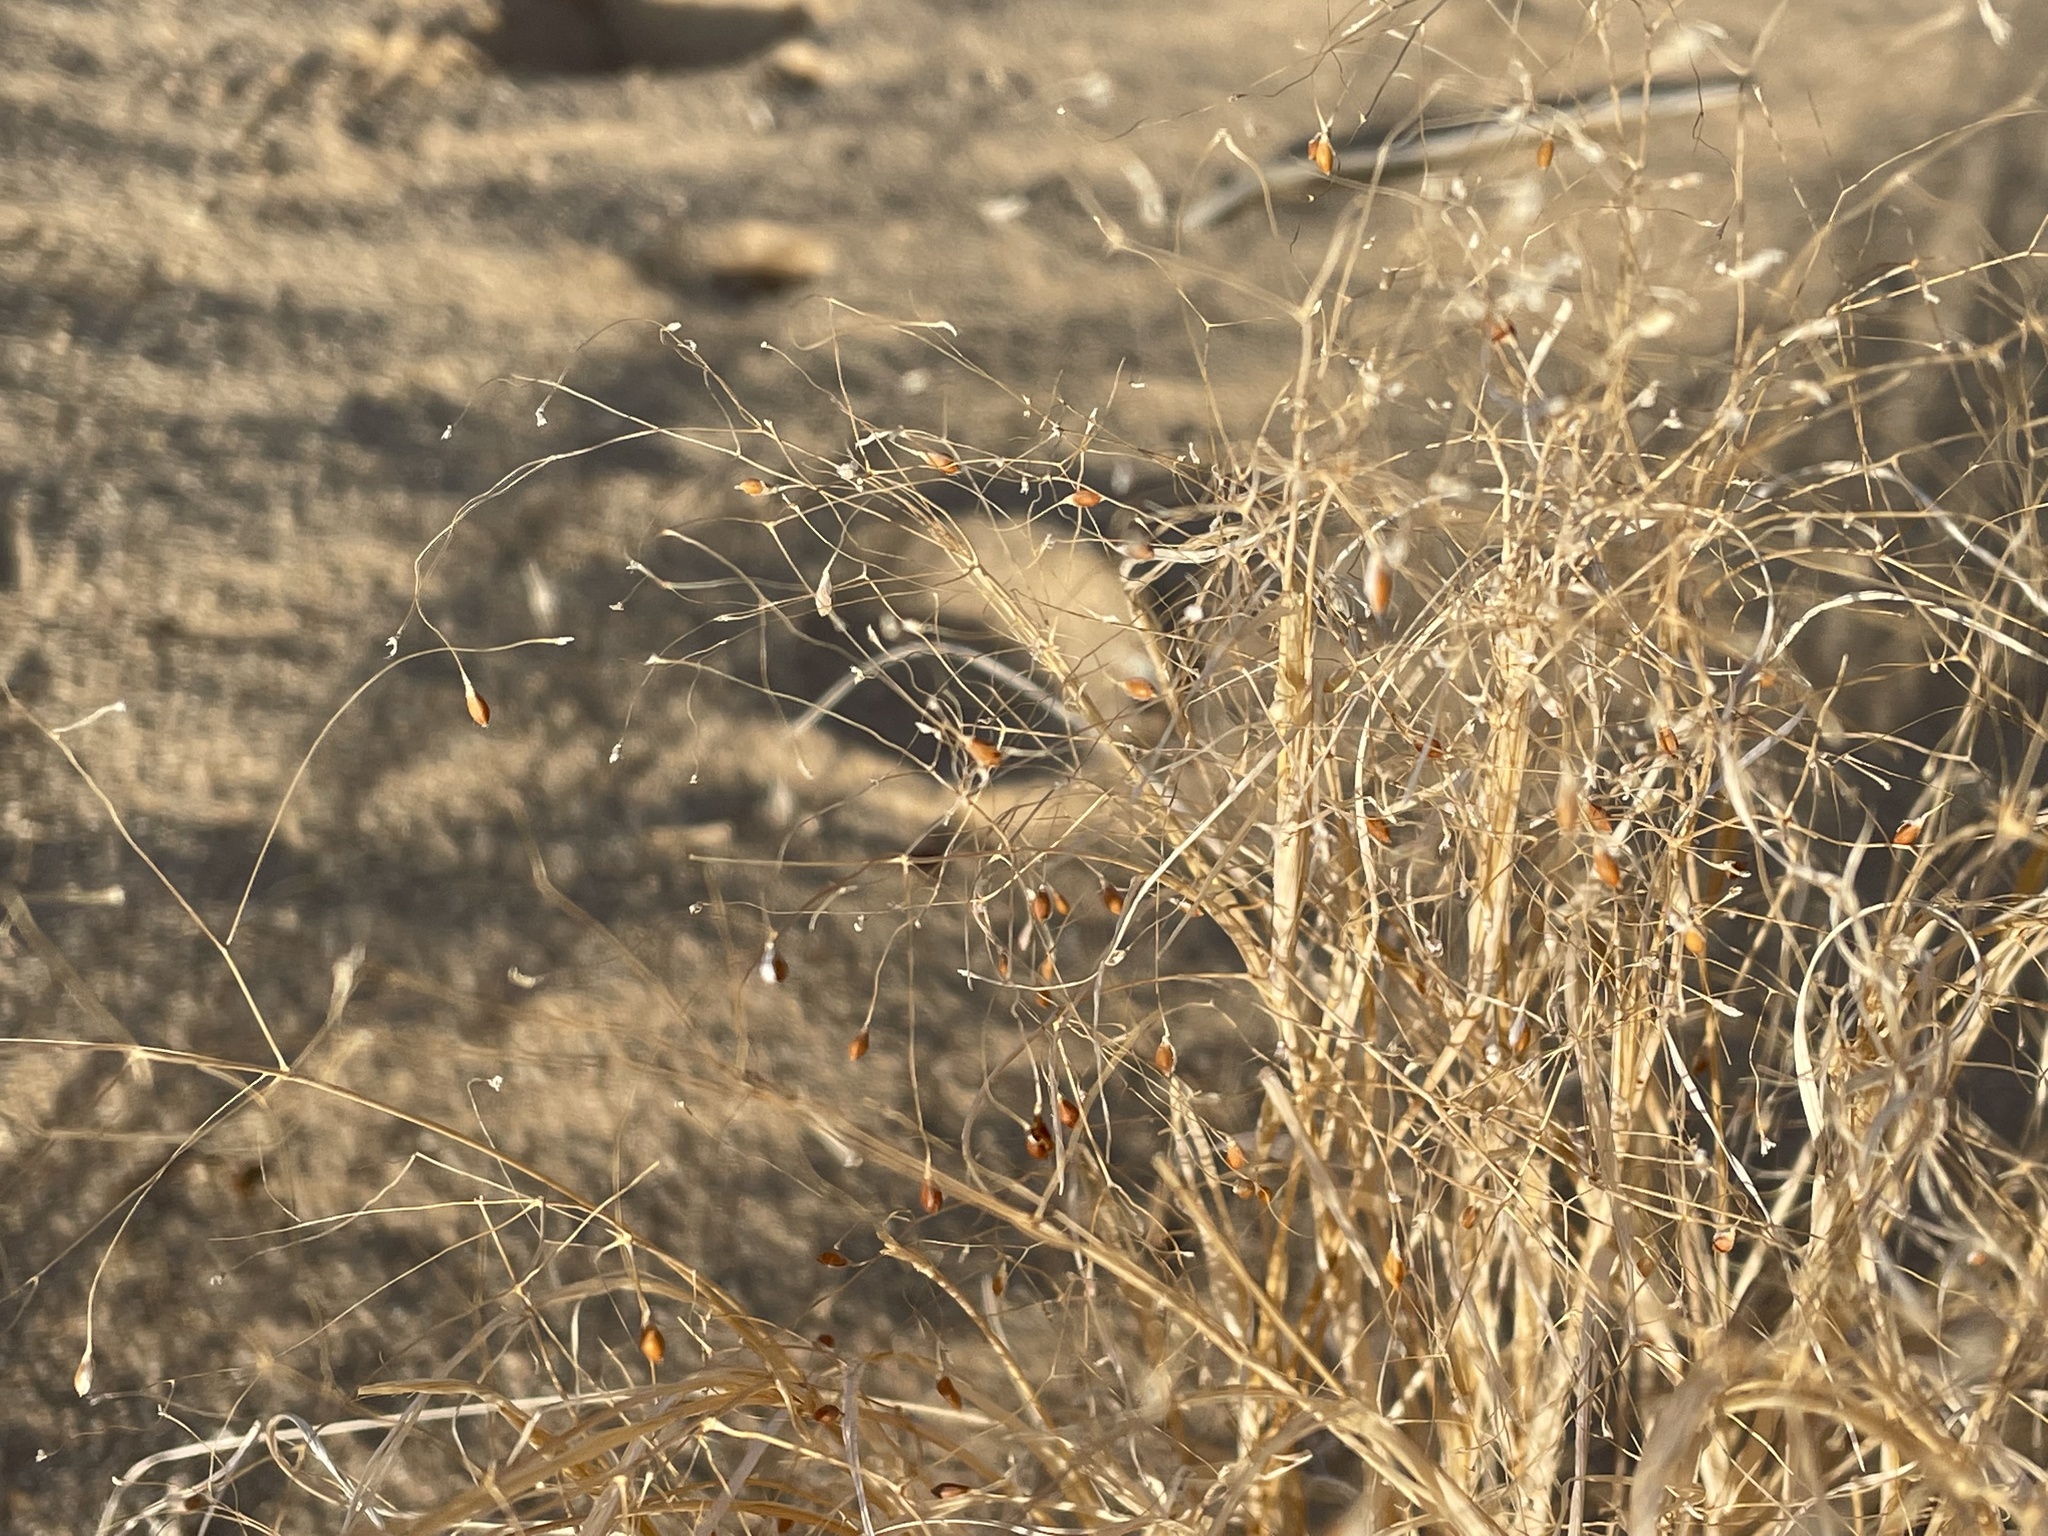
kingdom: Plantae
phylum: Tracheophyta
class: Liliopsida
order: Poales
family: Poaceae
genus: Eriocoma
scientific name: Eriocoma hymenoides
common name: Indian mountain ricegrass
